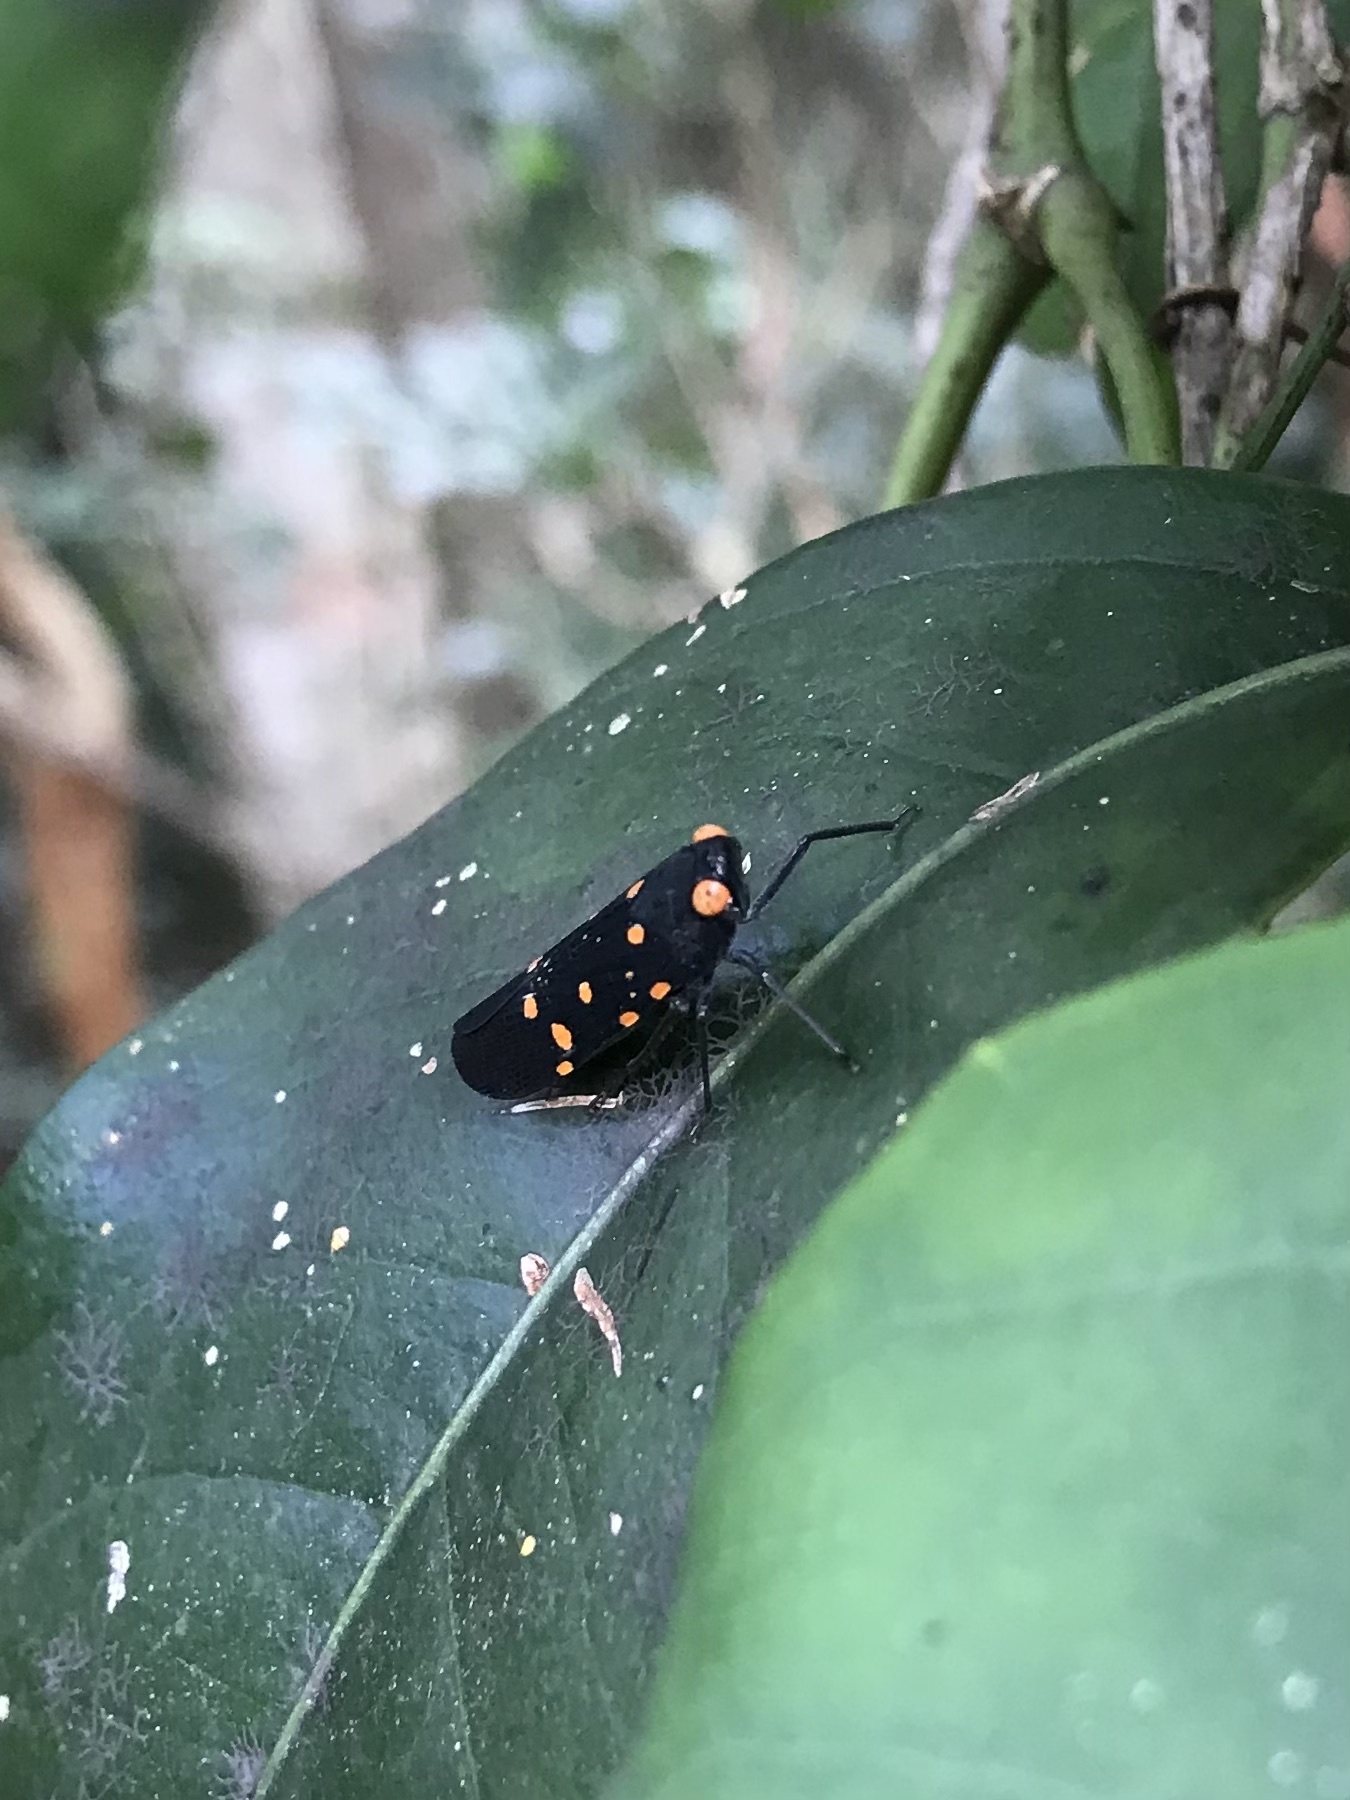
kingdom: Animalia
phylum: Arthropoda
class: Insecta
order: Hemiptera
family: Fulgoridae
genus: Desudaba
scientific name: Desudaba maculata
